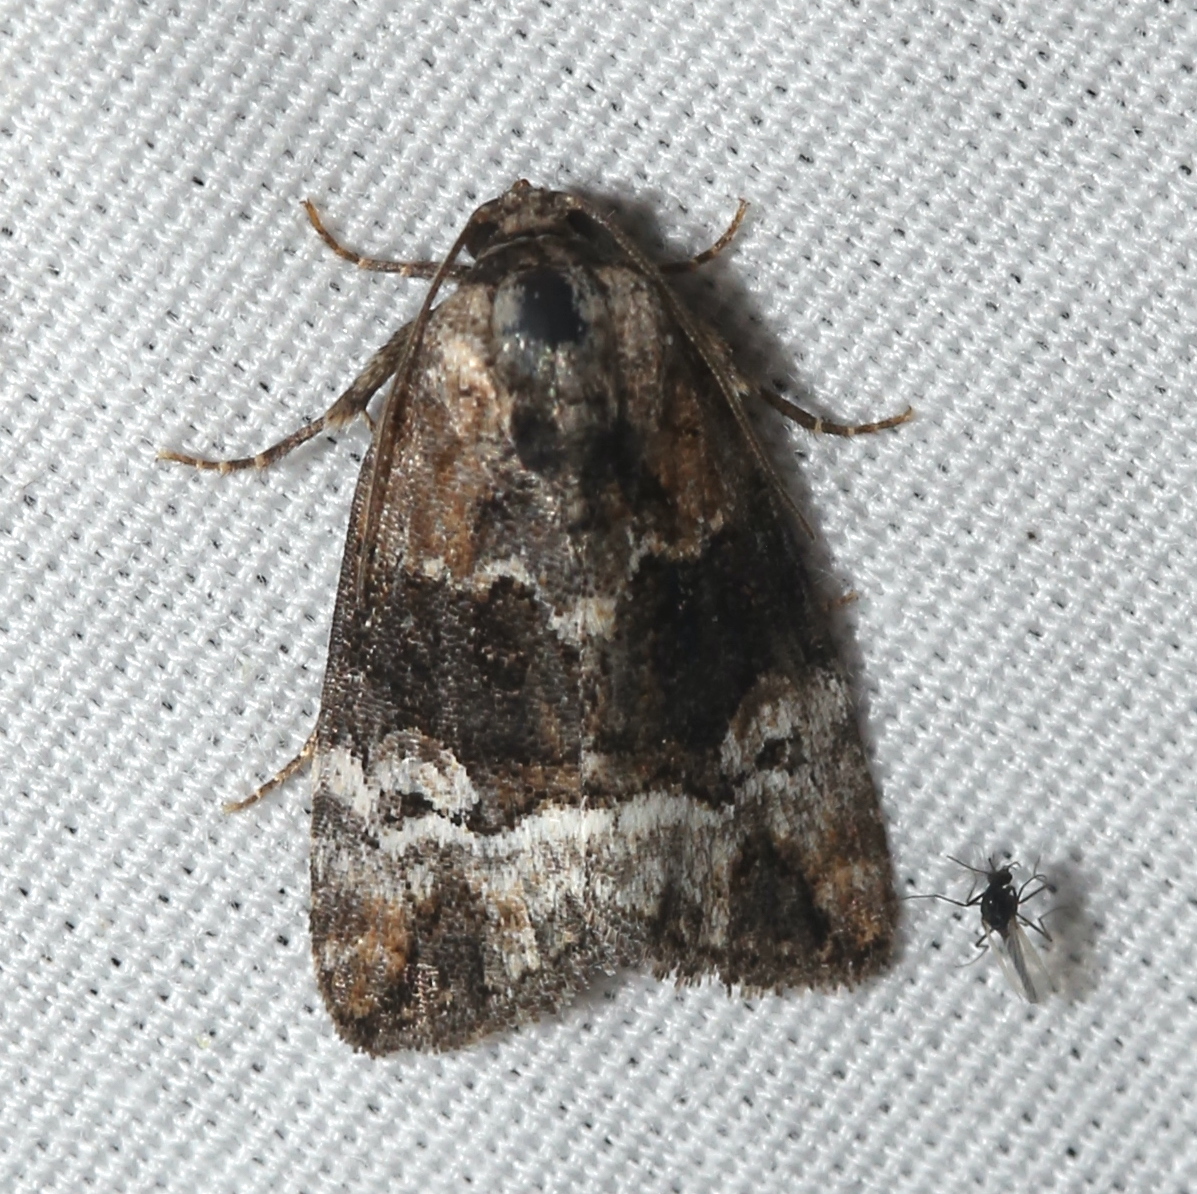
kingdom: Animalia
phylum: Arthropoda
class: Insecta
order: Lepidoptera
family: Noctuidae
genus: Elaphria
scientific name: Elaphria georgei
